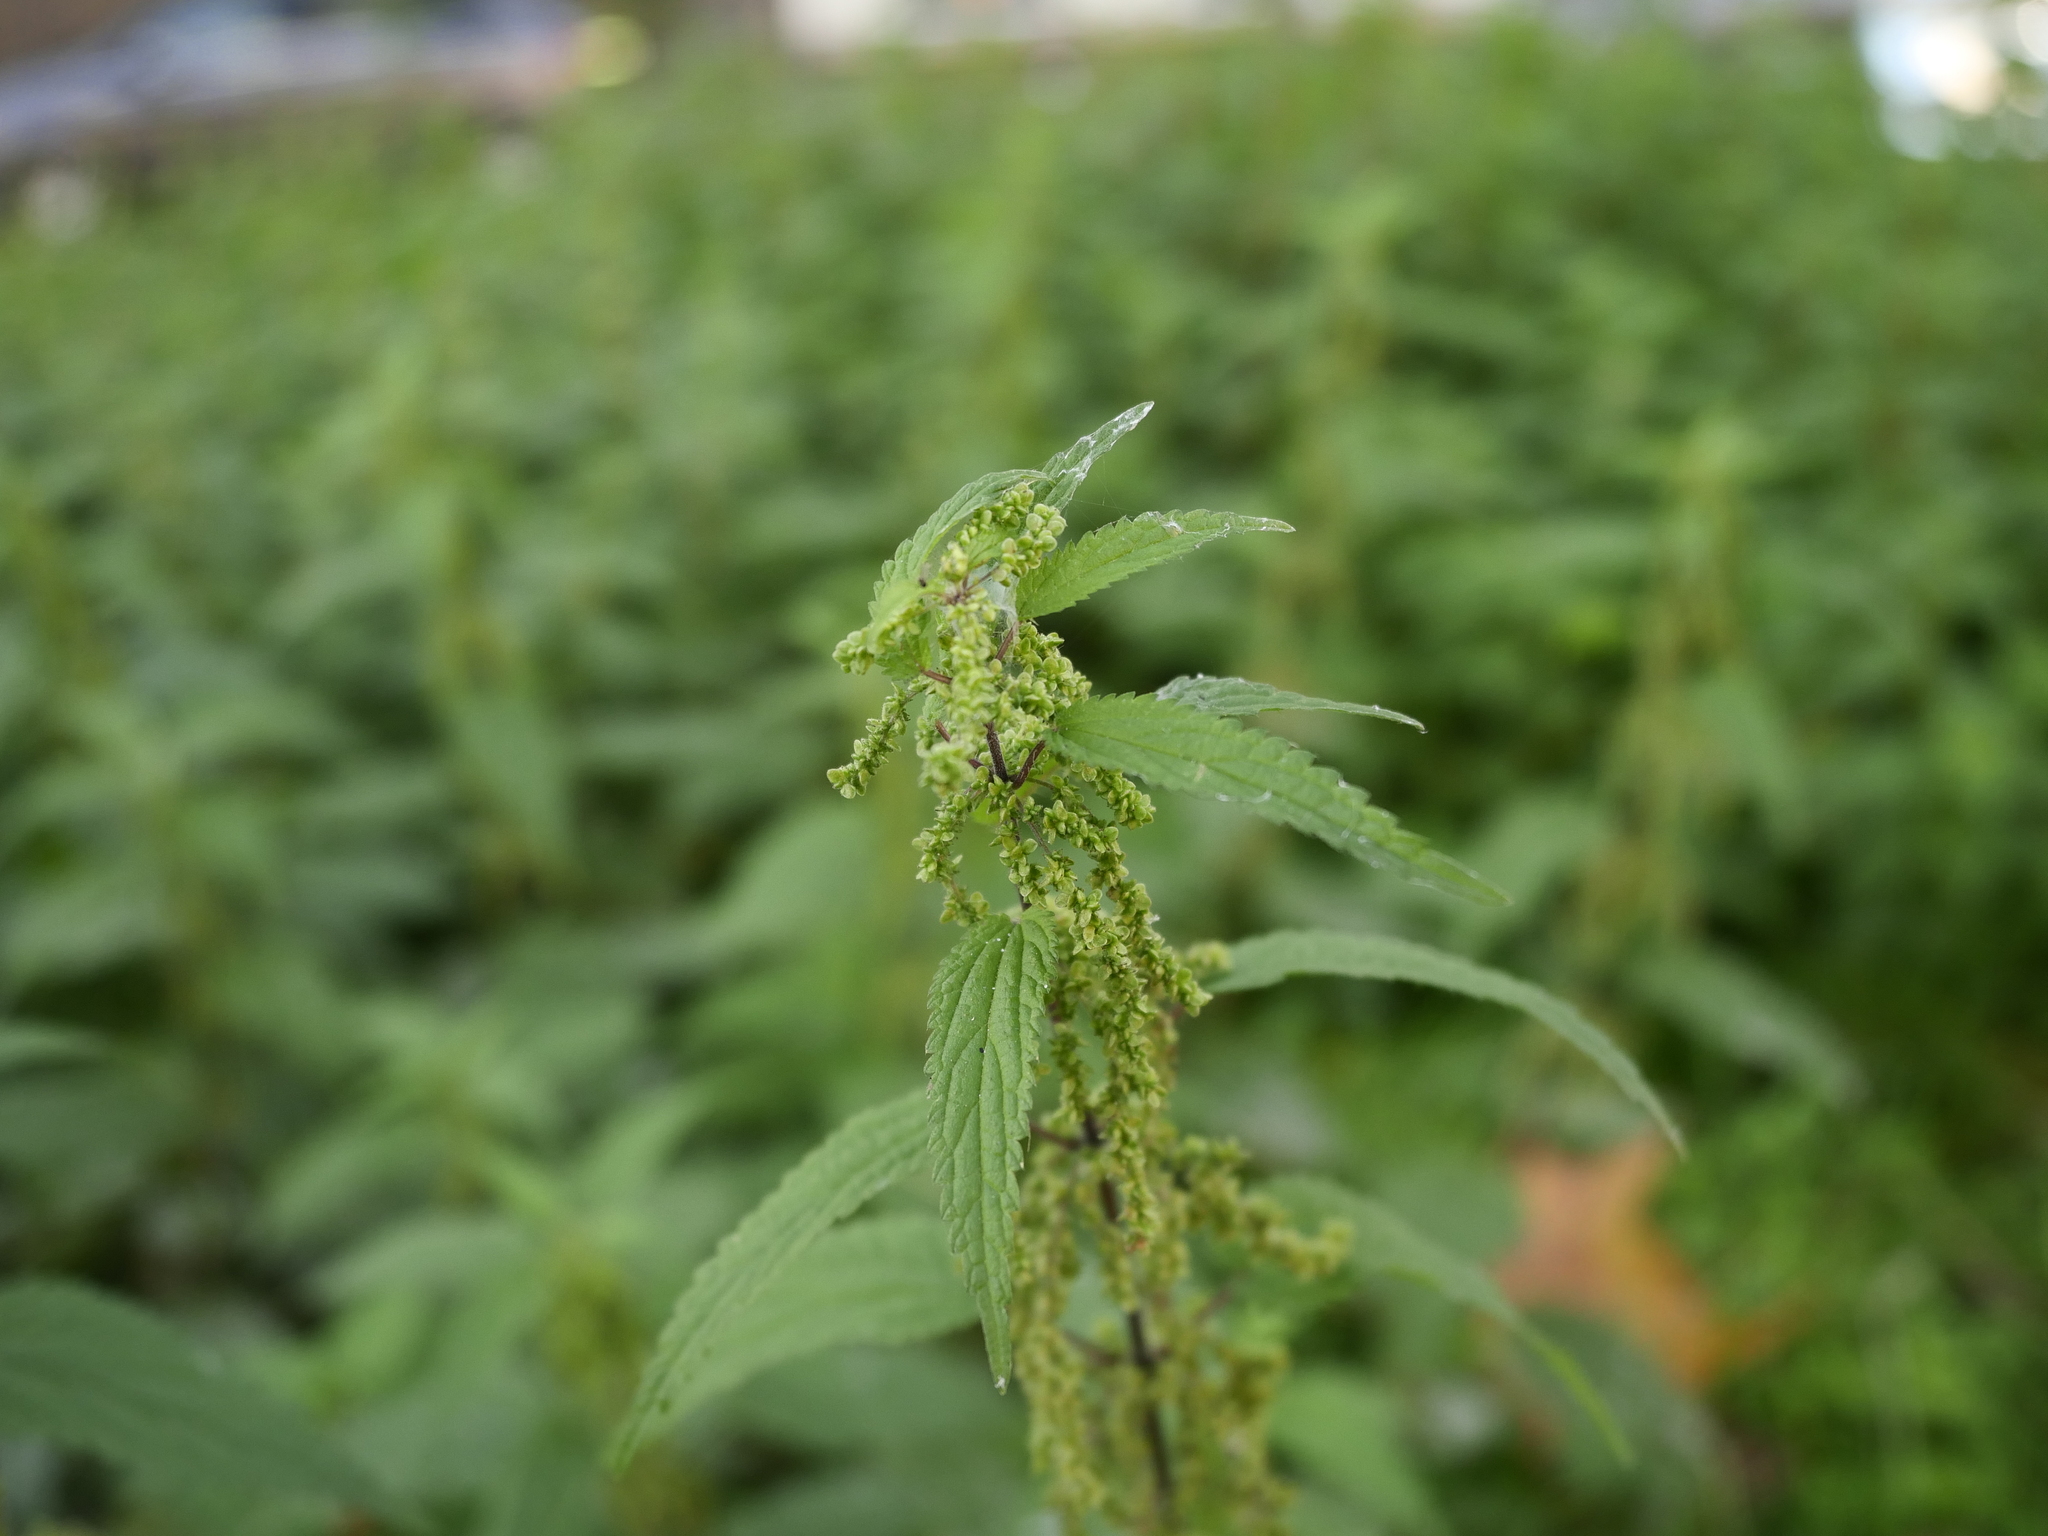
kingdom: Plantae
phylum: Tracheophyta
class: Magnoliopsida
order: Rosales
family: Urticaceae
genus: Urtica
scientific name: Urtica dioica
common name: Common nettle
